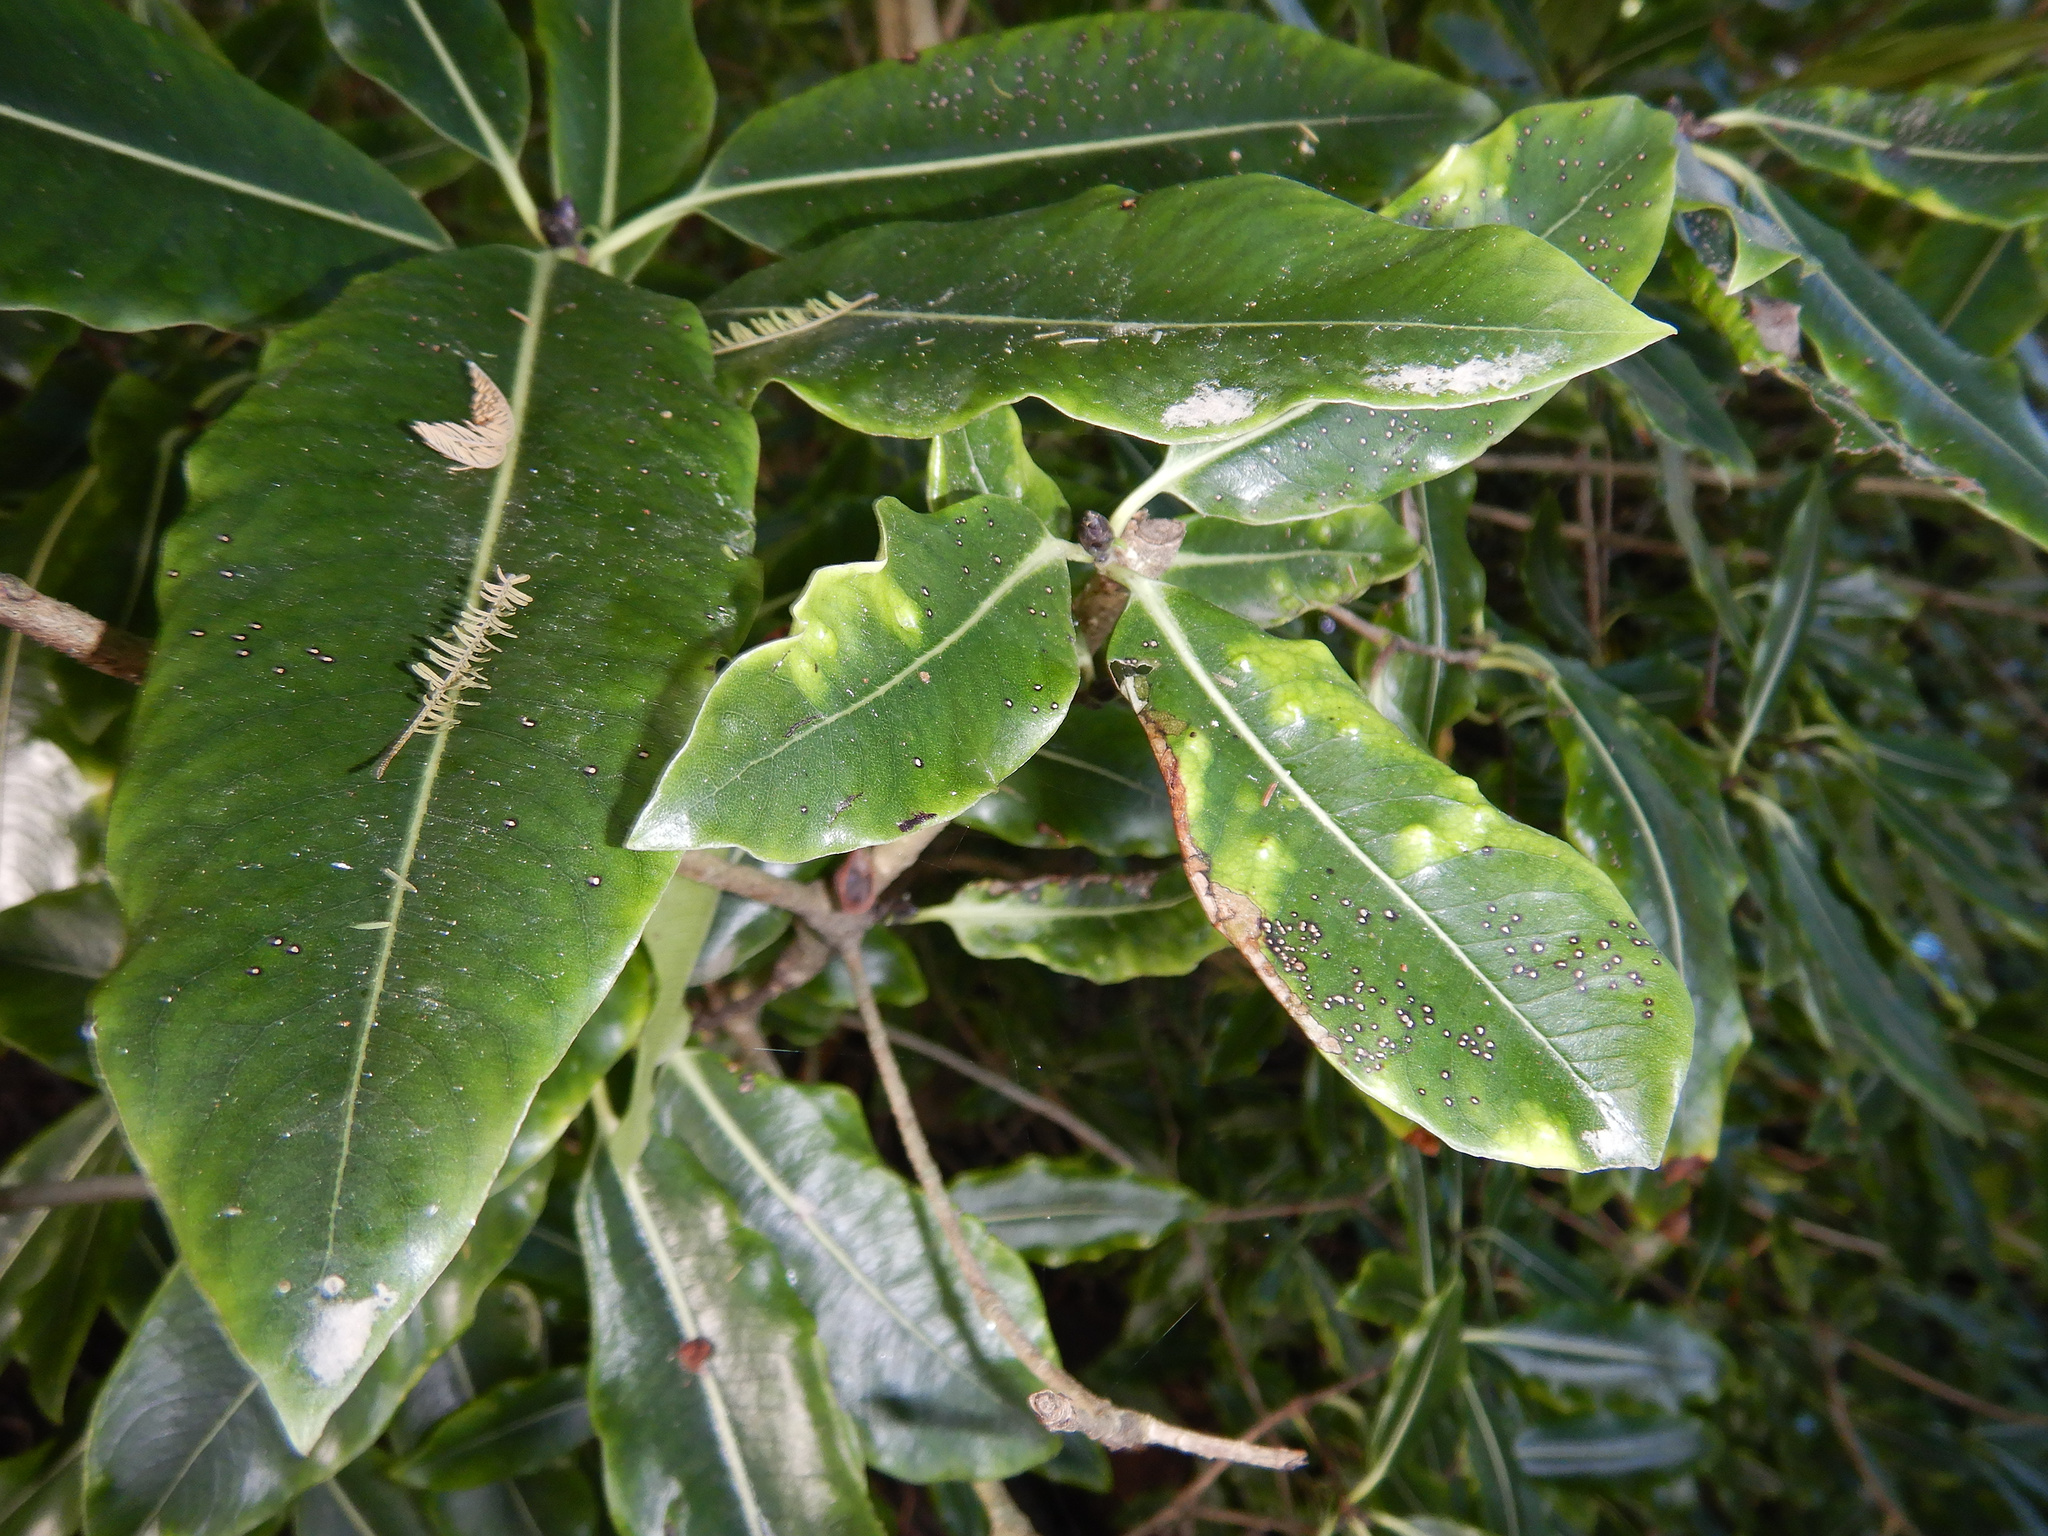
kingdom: Plantae
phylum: Tracheophyta
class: Magnoliopsida
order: Apiales
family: Pittosporaceae
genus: Pittosporum
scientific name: Pittosporum eugenioides
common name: Lemonwood
